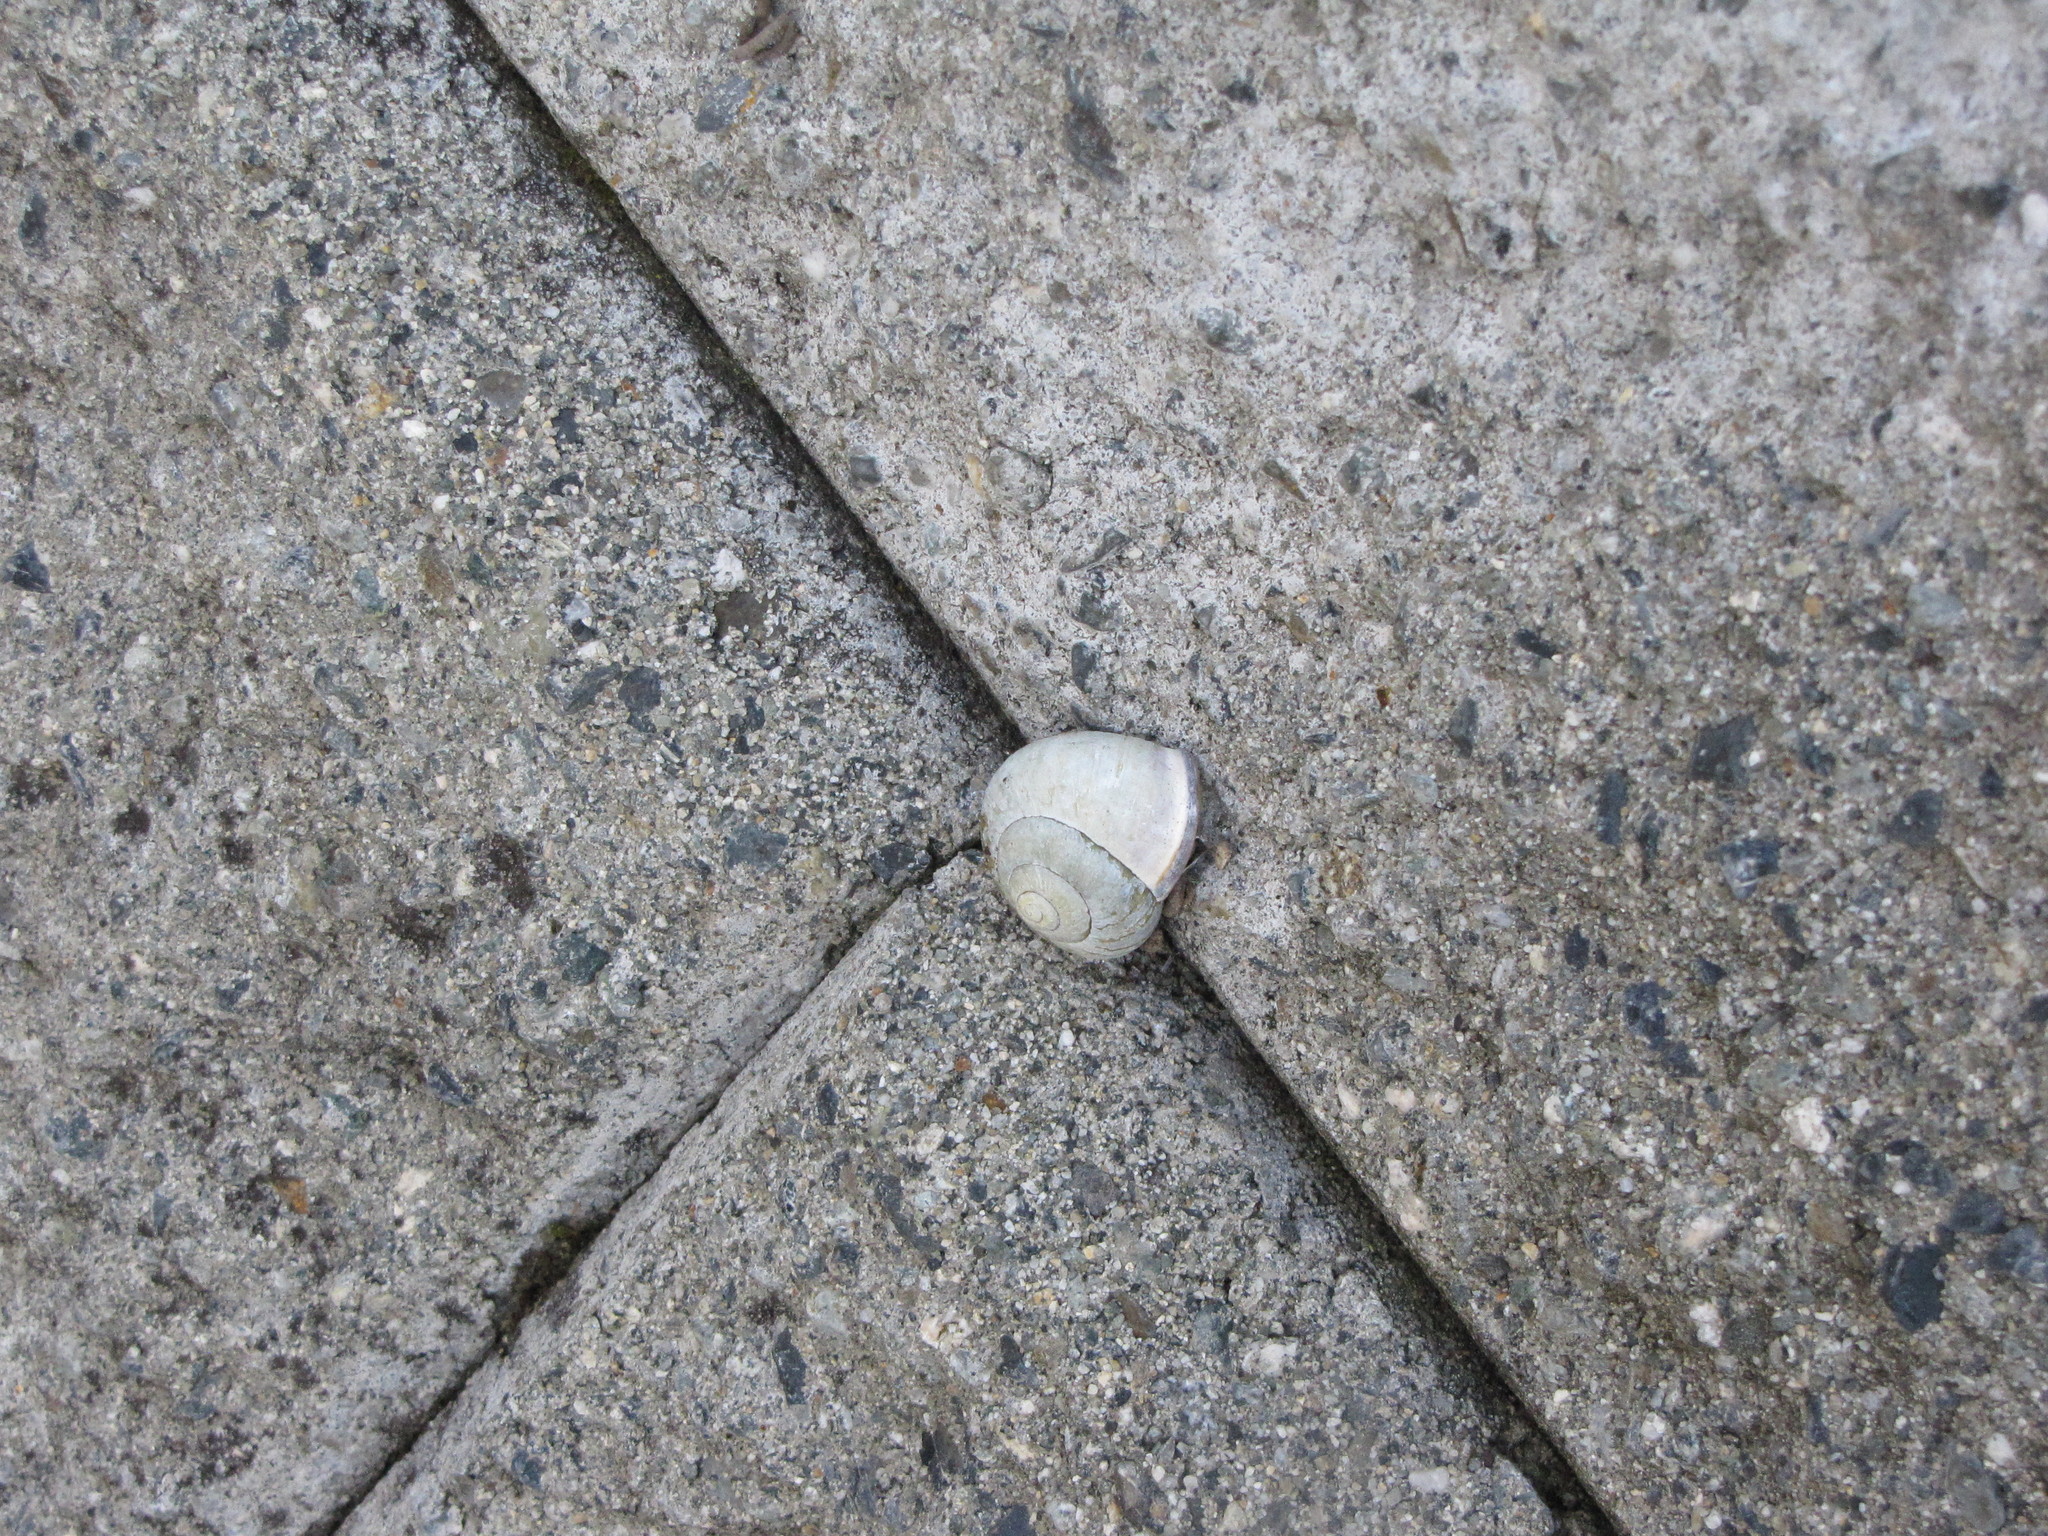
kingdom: Animalia
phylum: Mollusca
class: Gastropoda
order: Stylommatophora
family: Helicidae
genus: Cepaea
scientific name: Cepaea nemoralis
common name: Grovesnail
